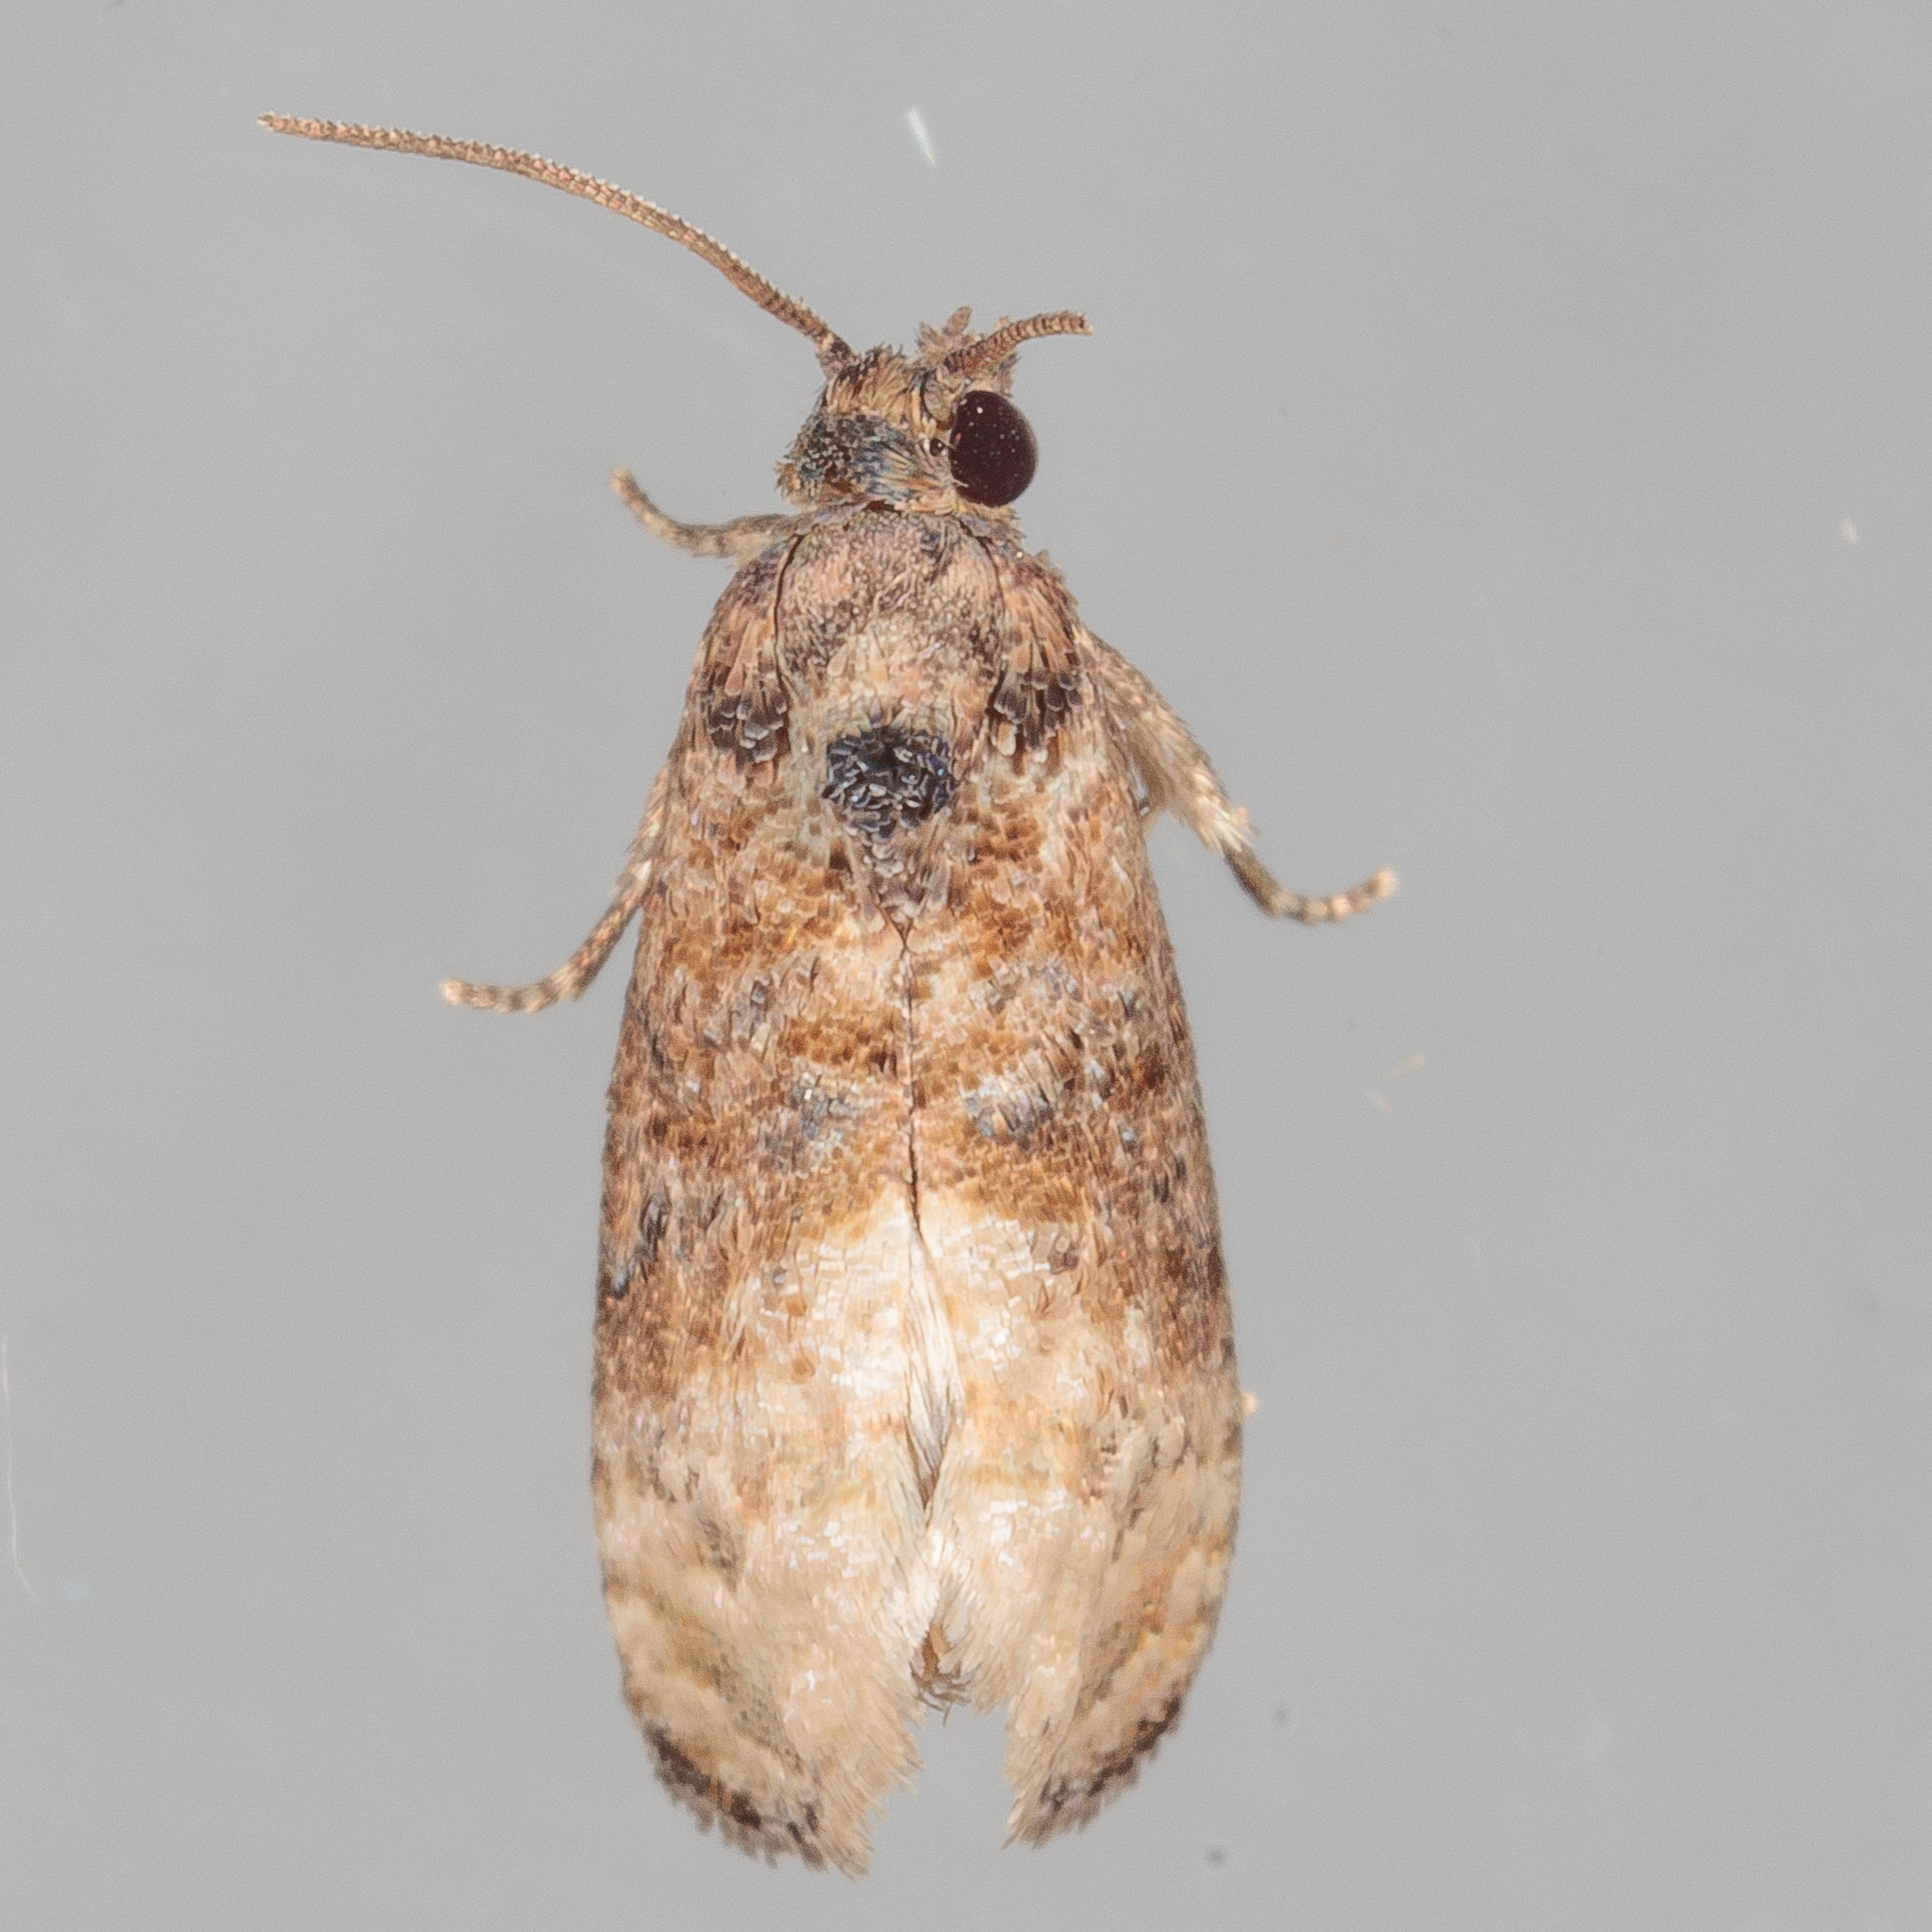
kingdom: Animalia
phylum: Arthropoda
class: Insecta
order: Lepidoptera
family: Tortricidae
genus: Ecdytolopha
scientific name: Ecdytolopha mana
